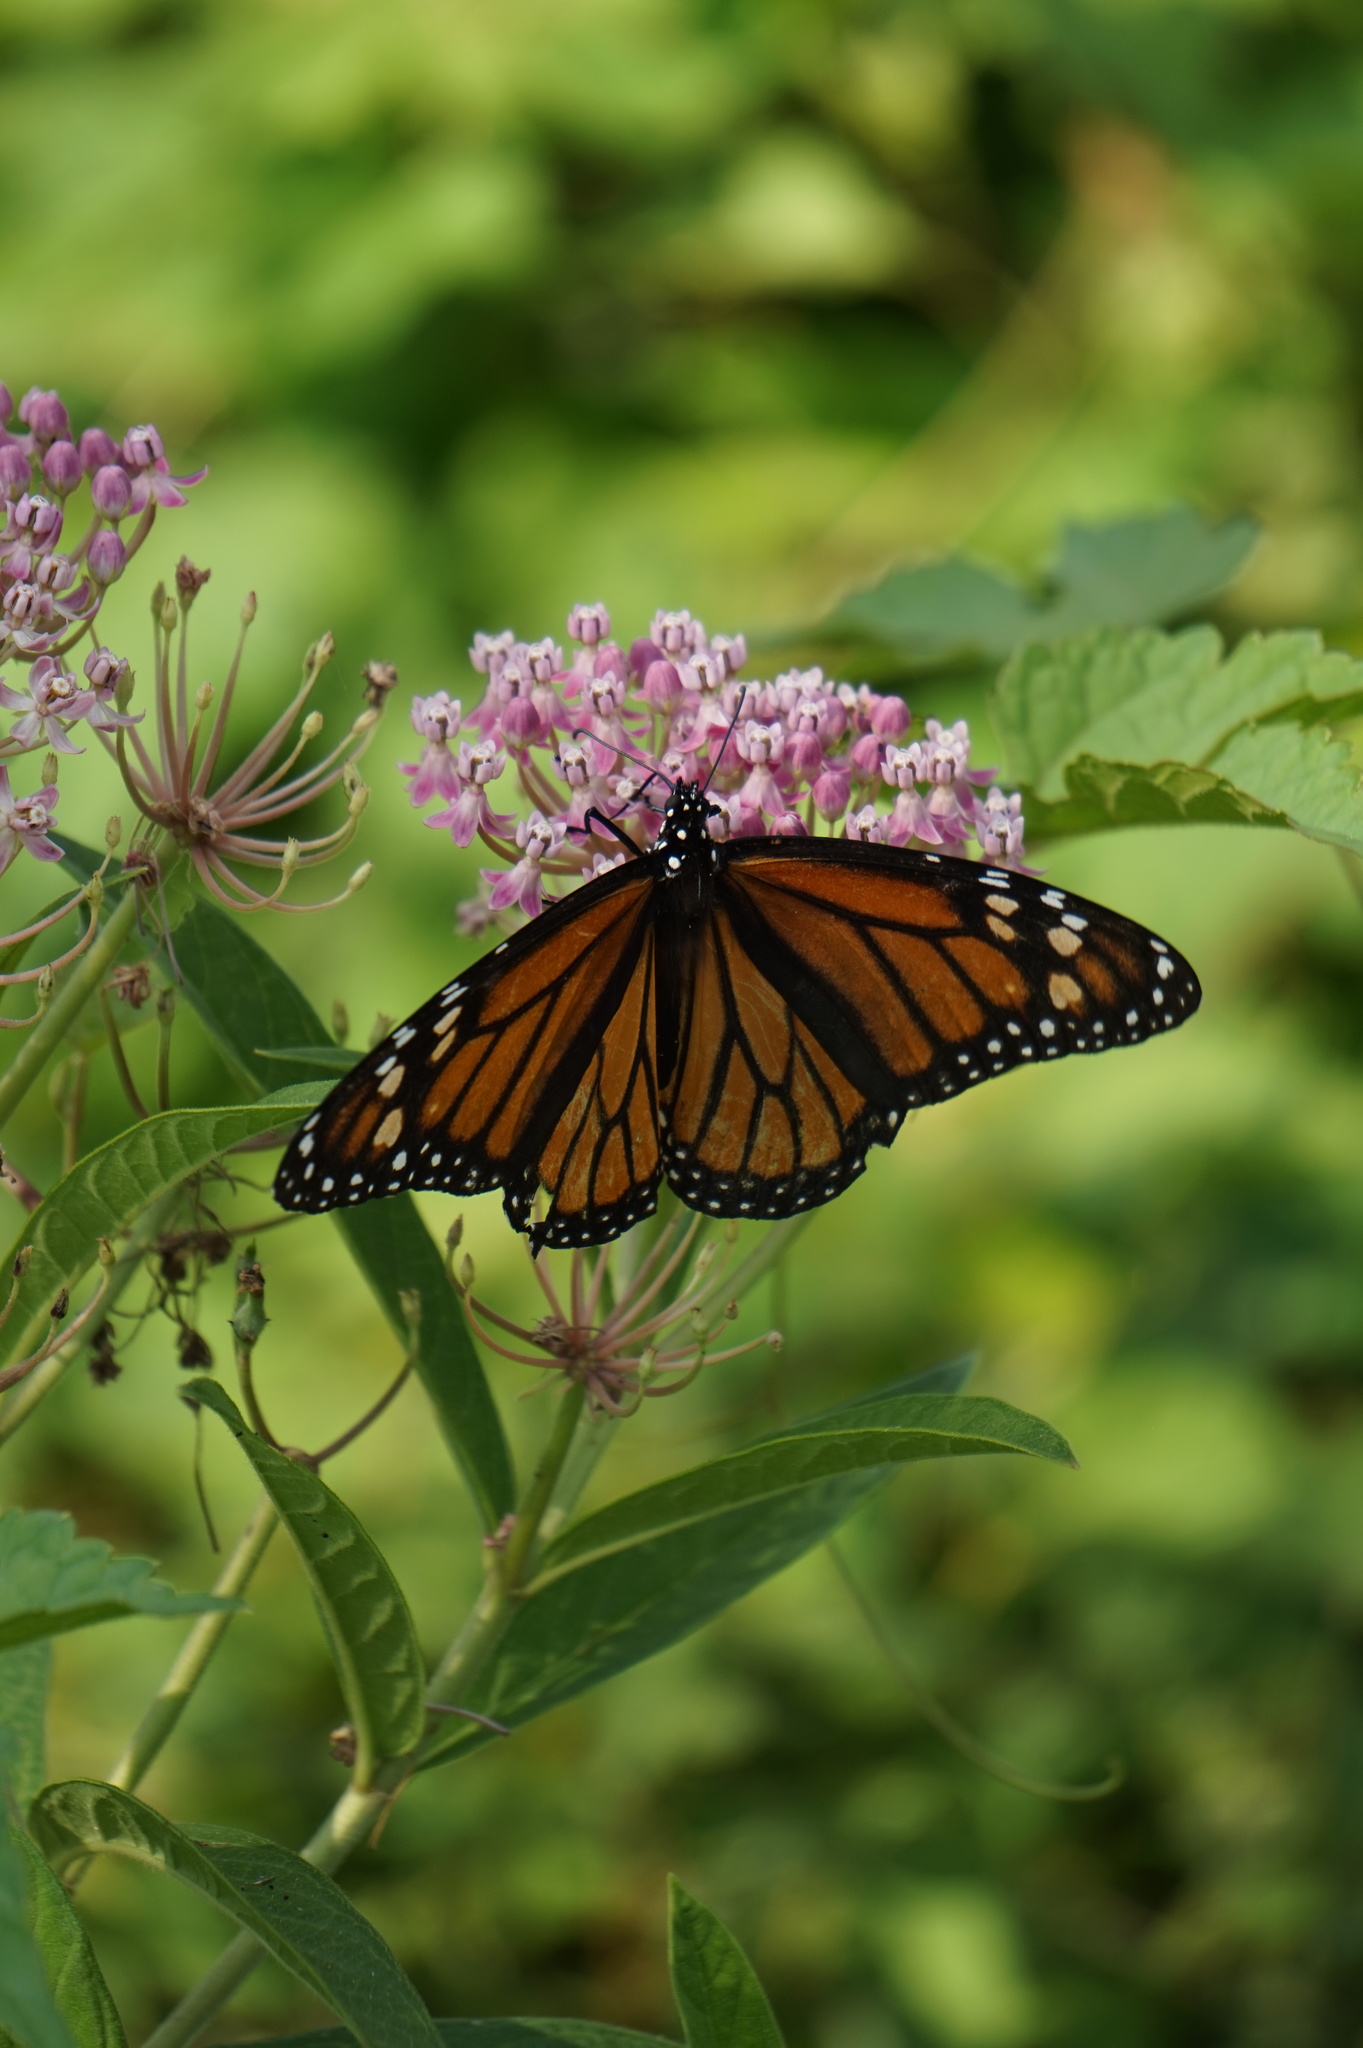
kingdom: Animalia
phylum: Arthropoda
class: Insecta
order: Lepidoptera
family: Nymphalidae
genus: Danaus
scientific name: Danaus plexippus
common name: Monarch
